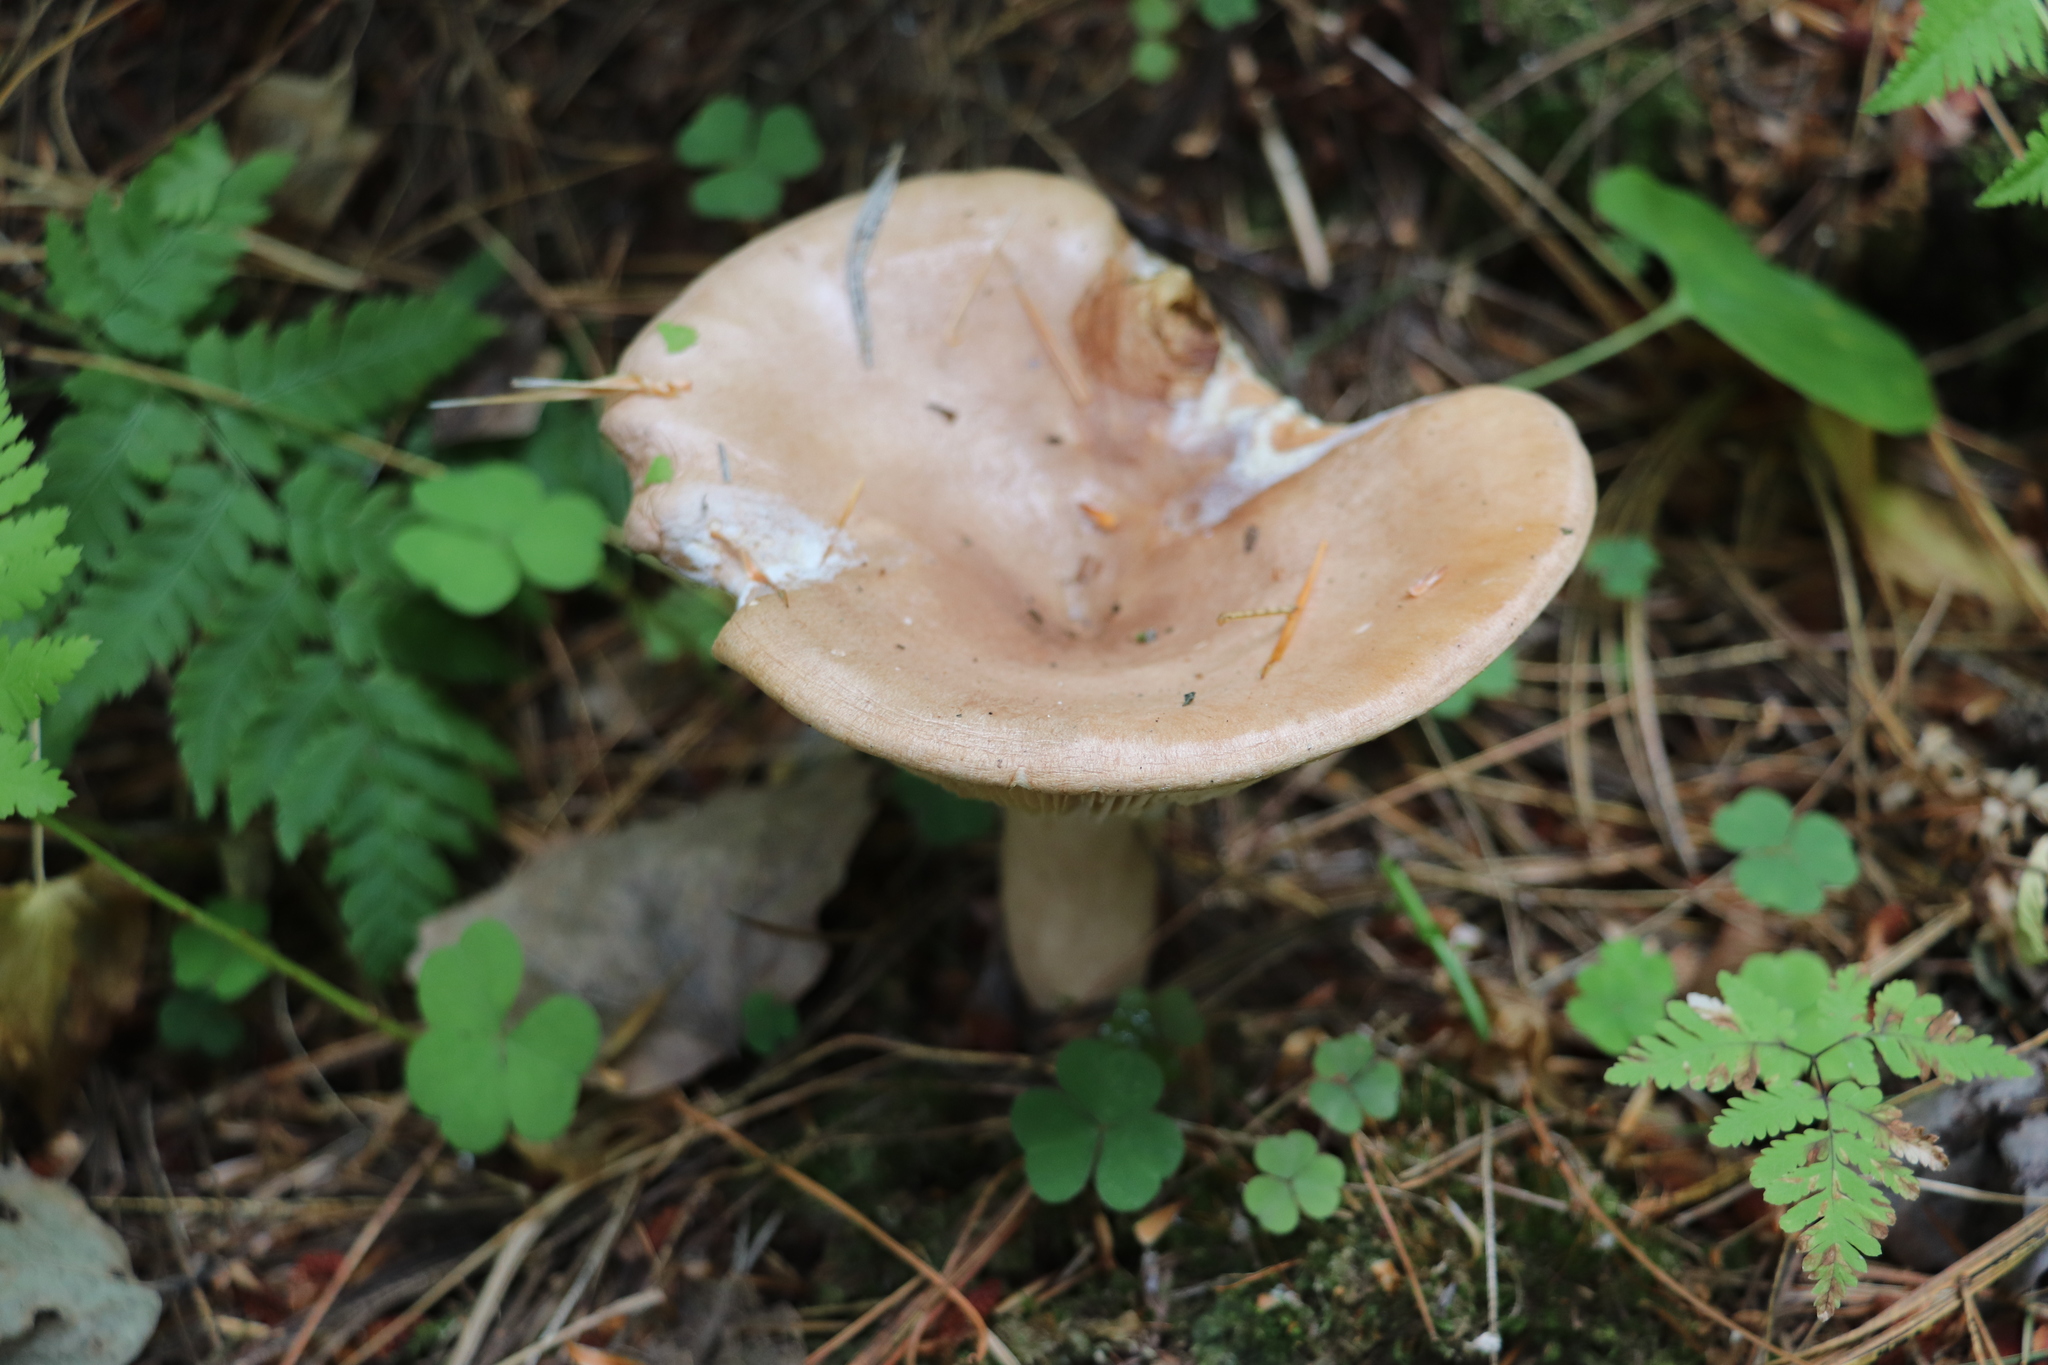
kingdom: Fungi
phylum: Basidiomycota
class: Agaricomycetes
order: Russulales
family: Russulaceae
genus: Lactarius
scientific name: Lactarius vietus
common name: Grey milk-cap
